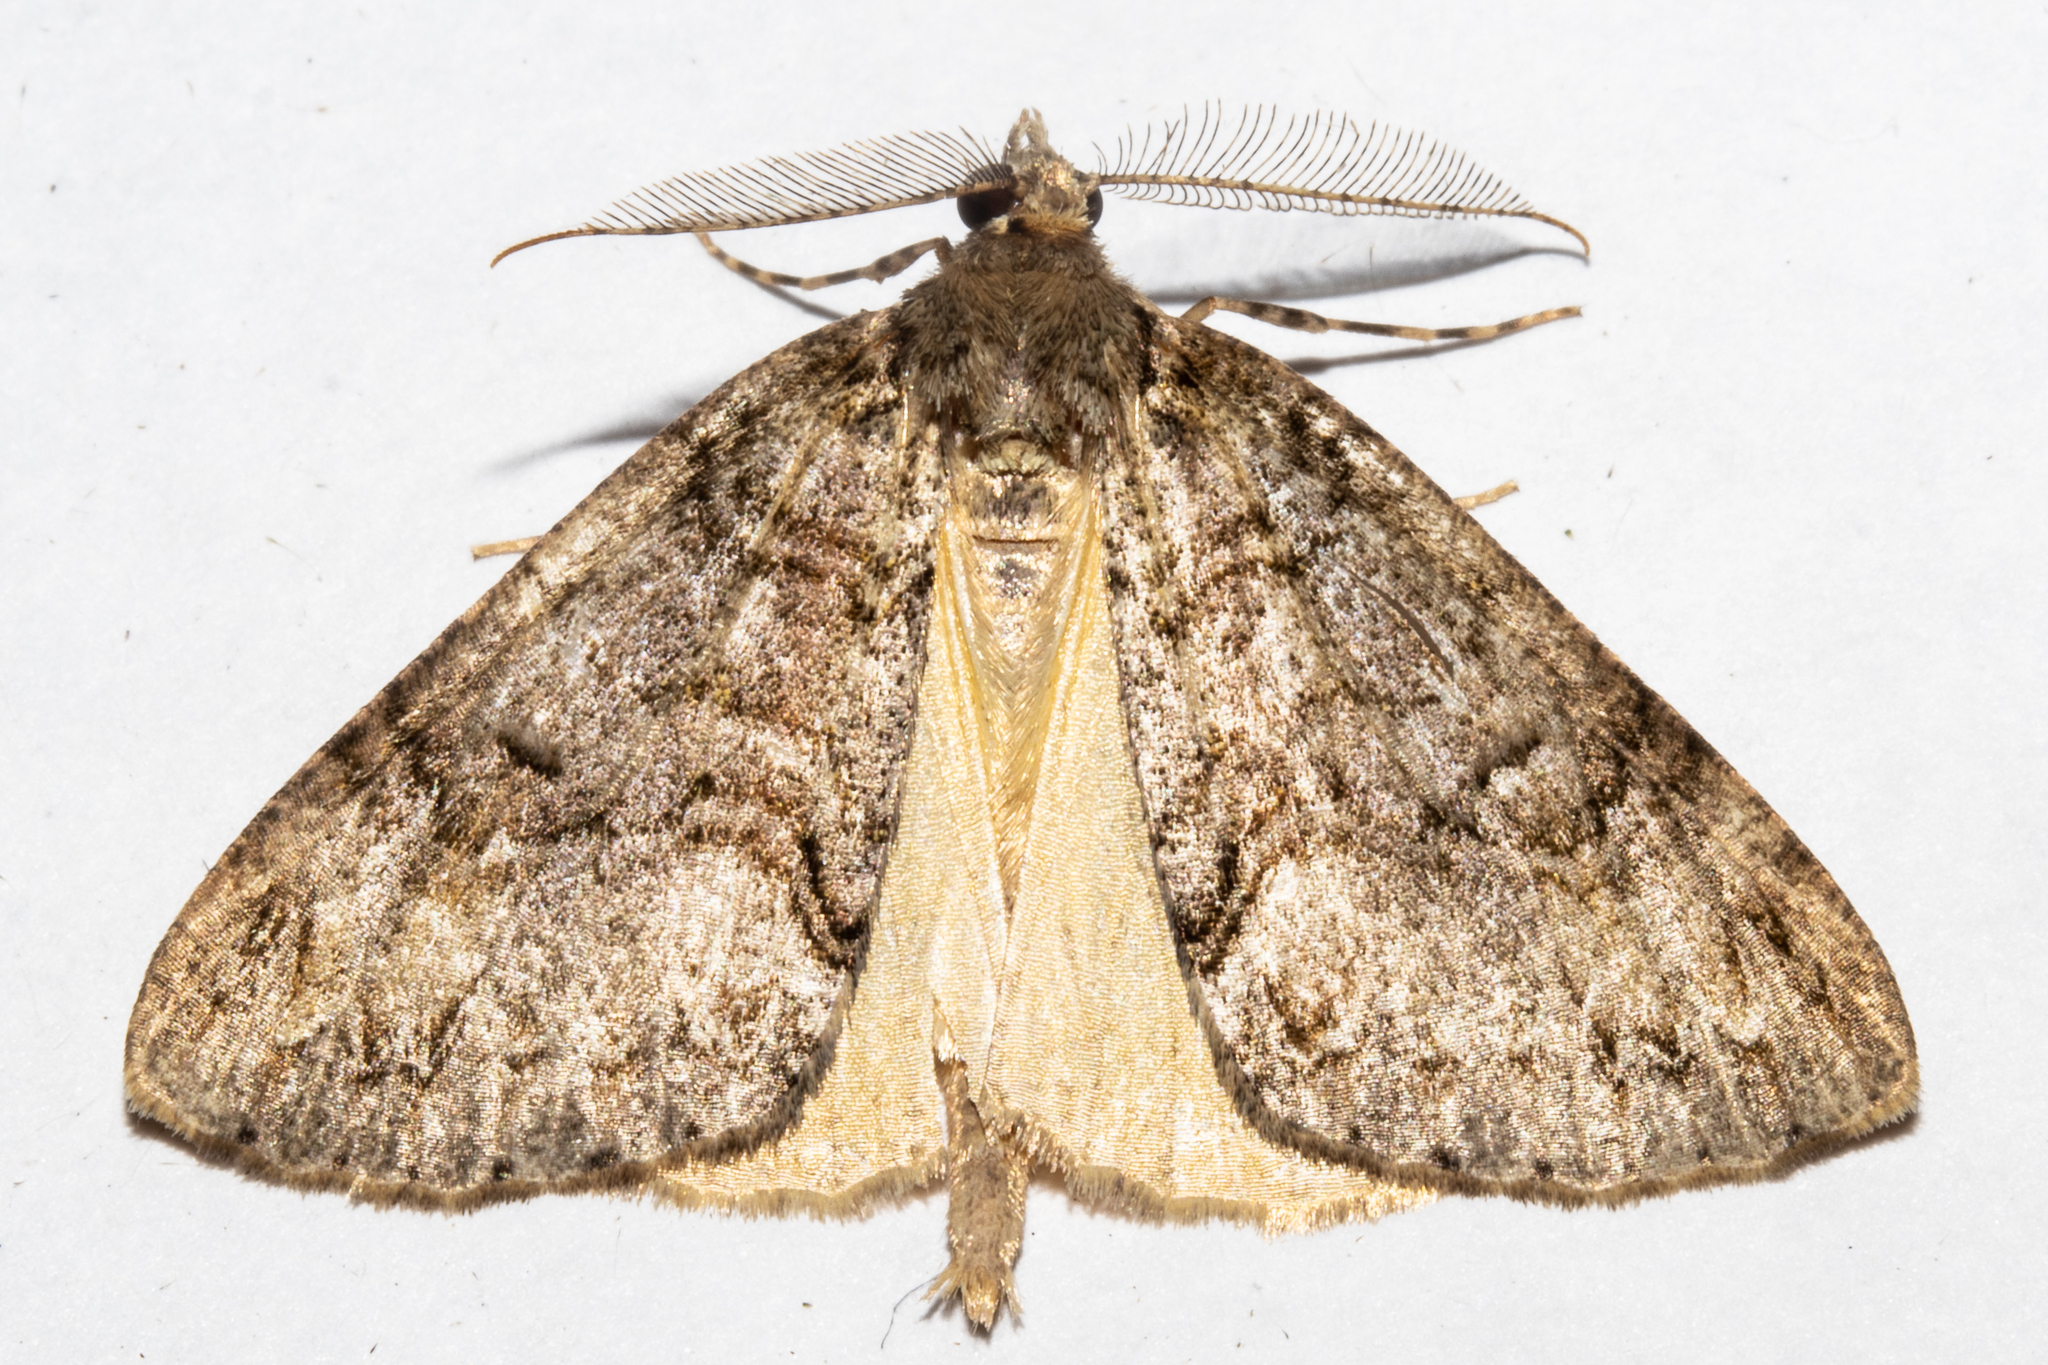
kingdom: Animalia
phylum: Arthropoda
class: Insecta
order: Lepidoptera
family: Geometridae
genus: Pseudocoremia
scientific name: Pseudocoremia suavis
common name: Common forest looper
